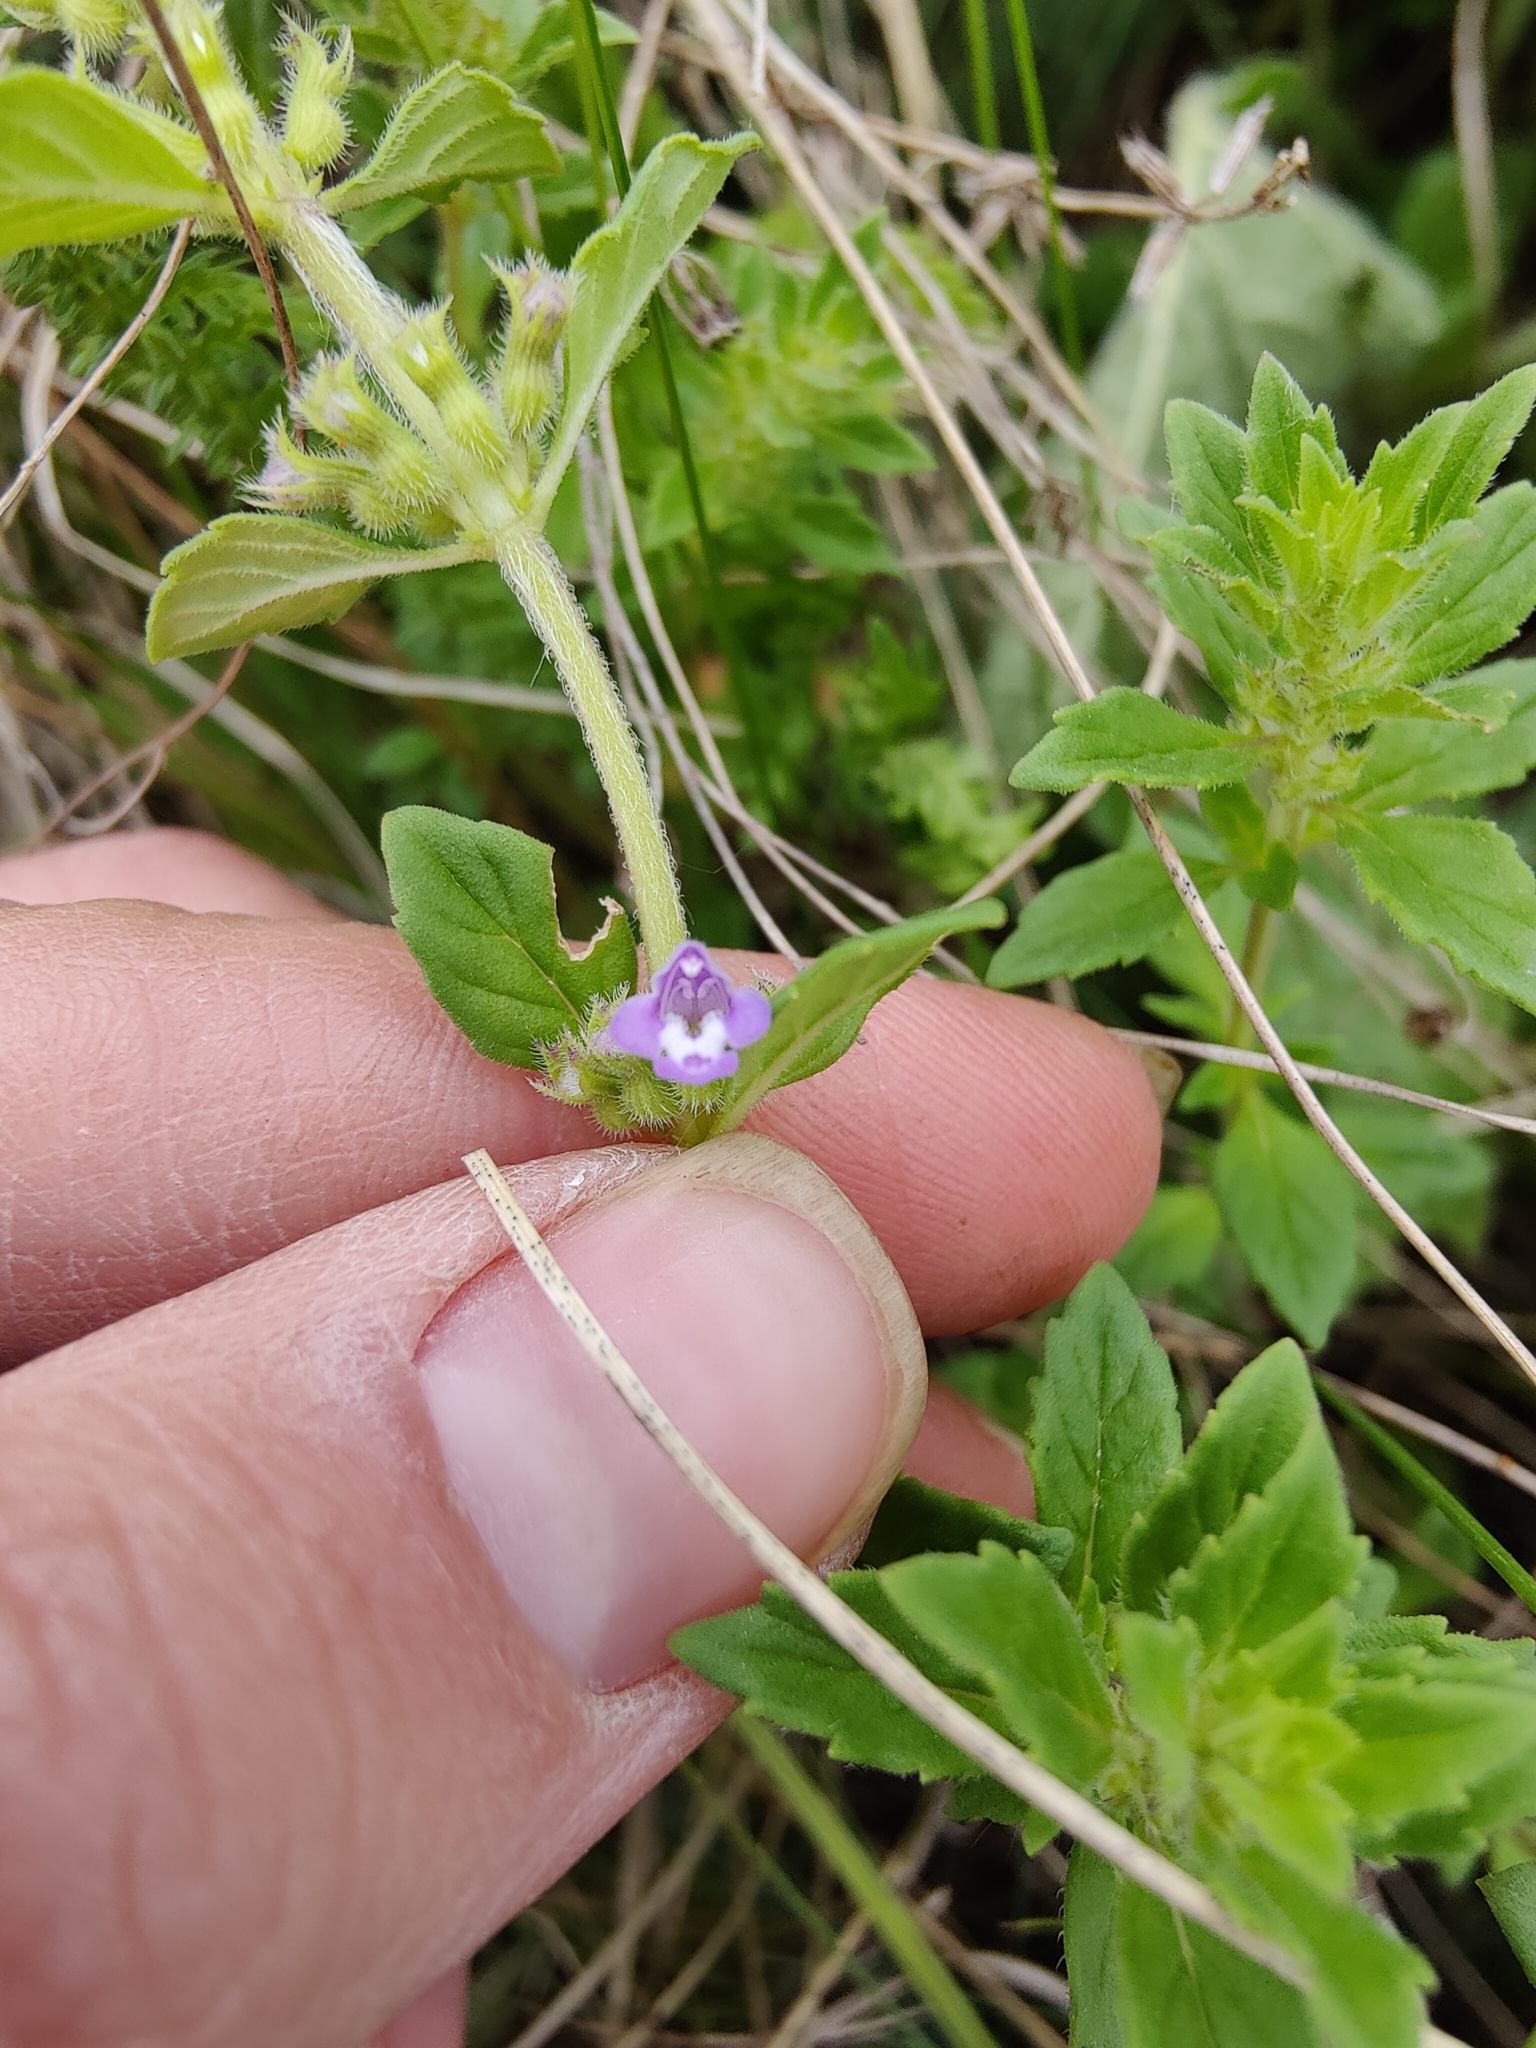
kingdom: Plantae
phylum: Tracheophyta
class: Magnoliopsida
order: Lamiales
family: Lamiaceae
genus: Clinopodium
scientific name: Clinopodium acinos
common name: Basil thyme
